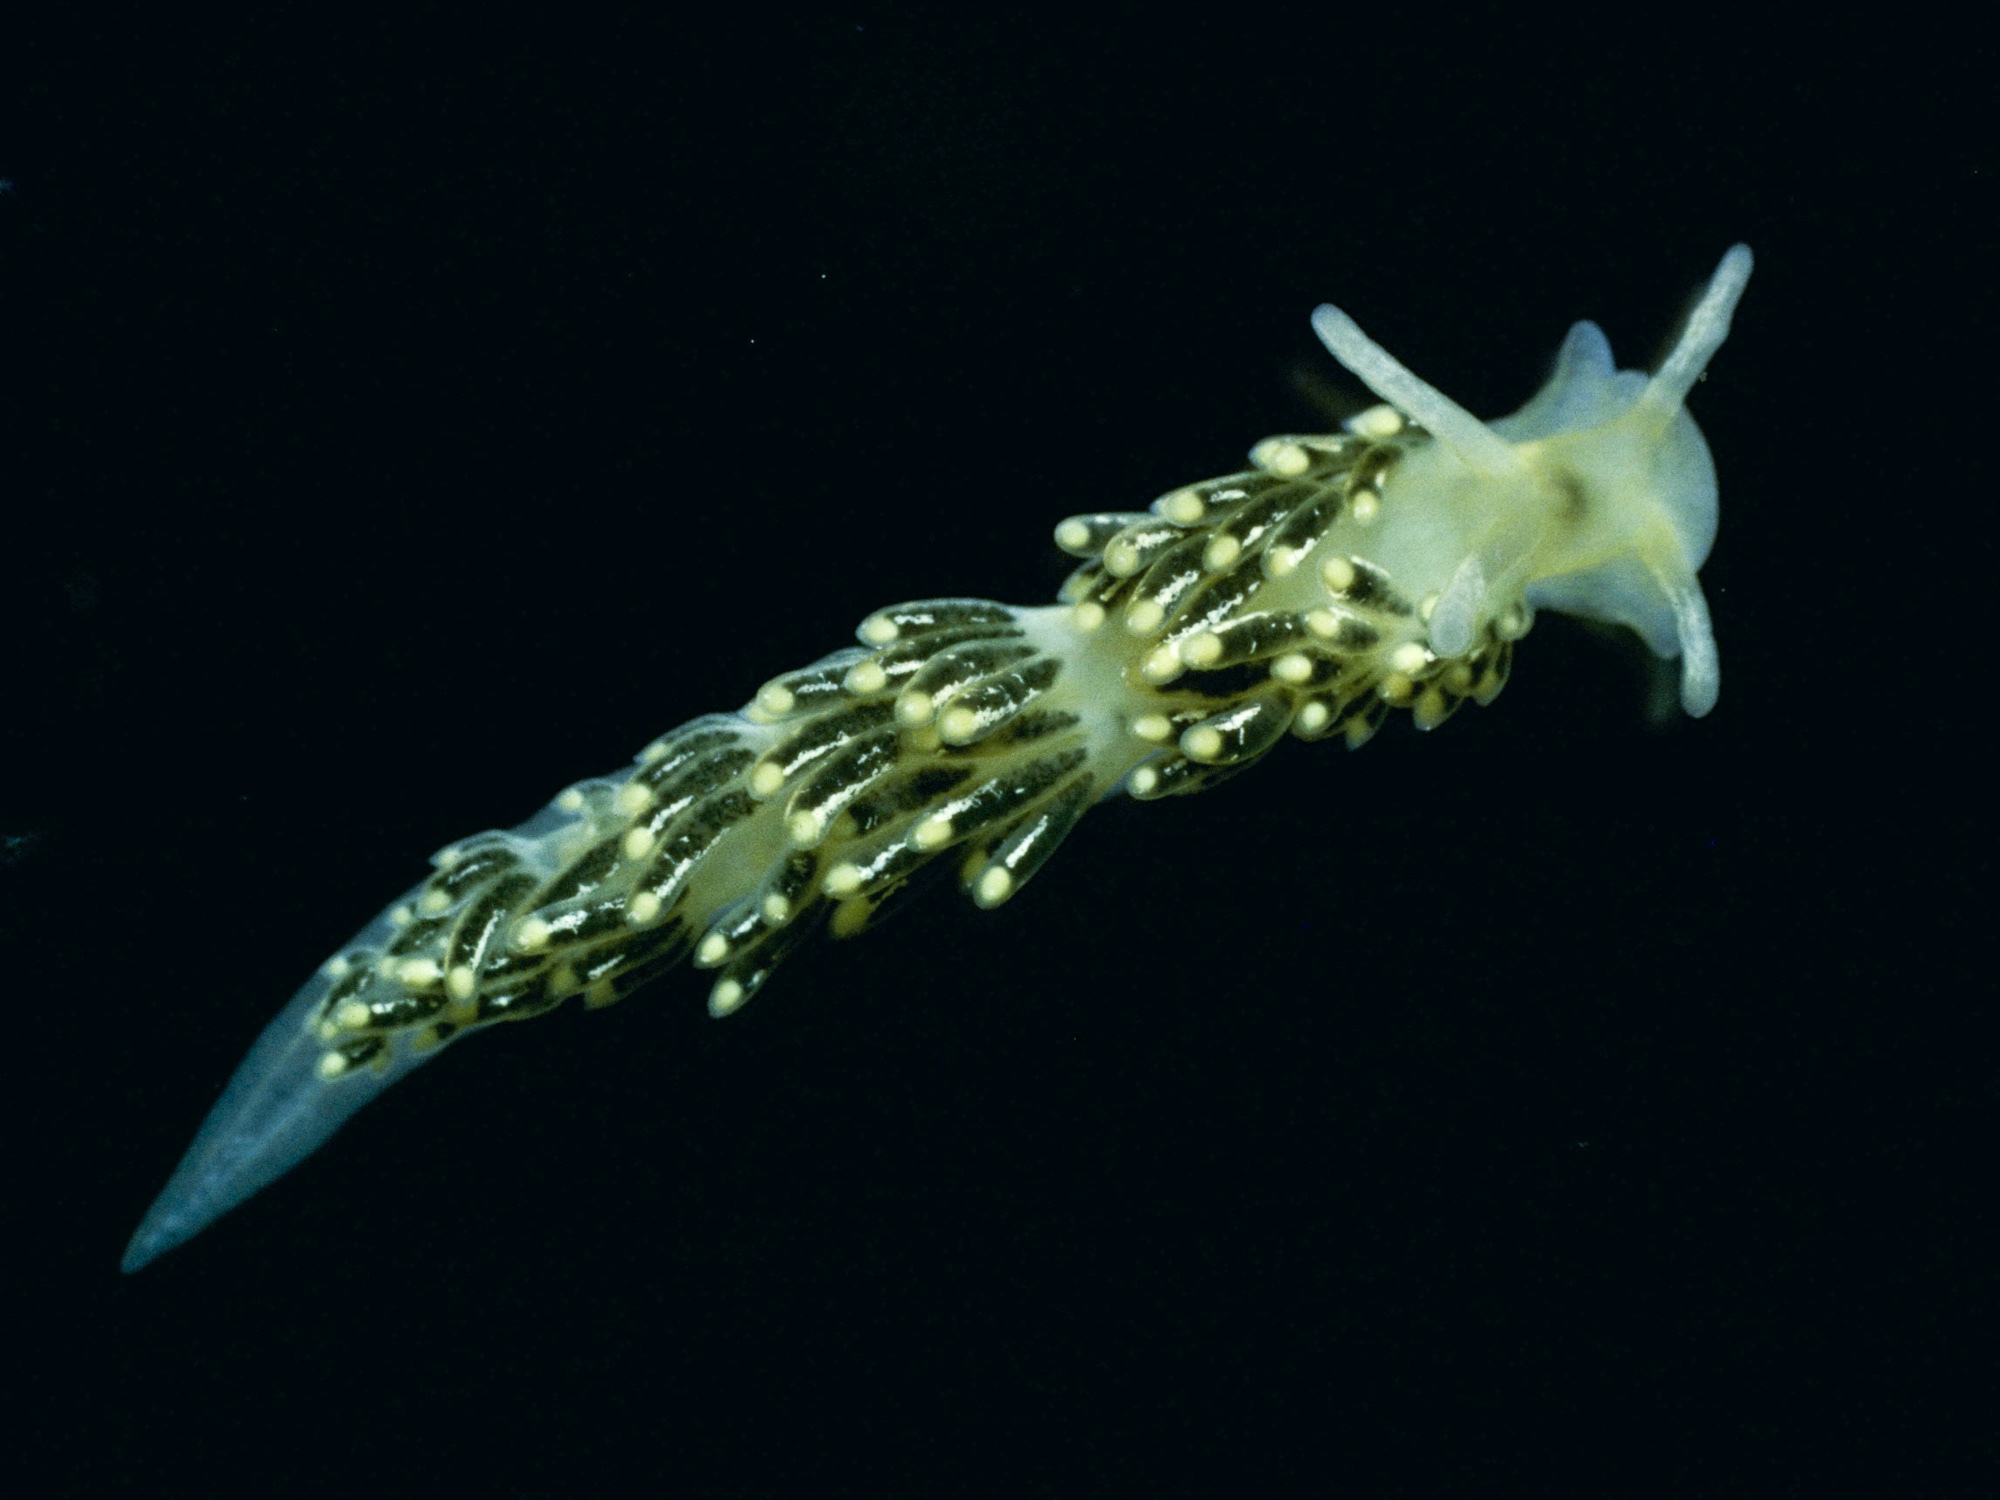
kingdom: Animalia
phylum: Mollusca
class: Gastropoda
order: Nudibranchia
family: Trinchesiidae
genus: Diaphoreolis
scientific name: Diaphoreolis viridis
